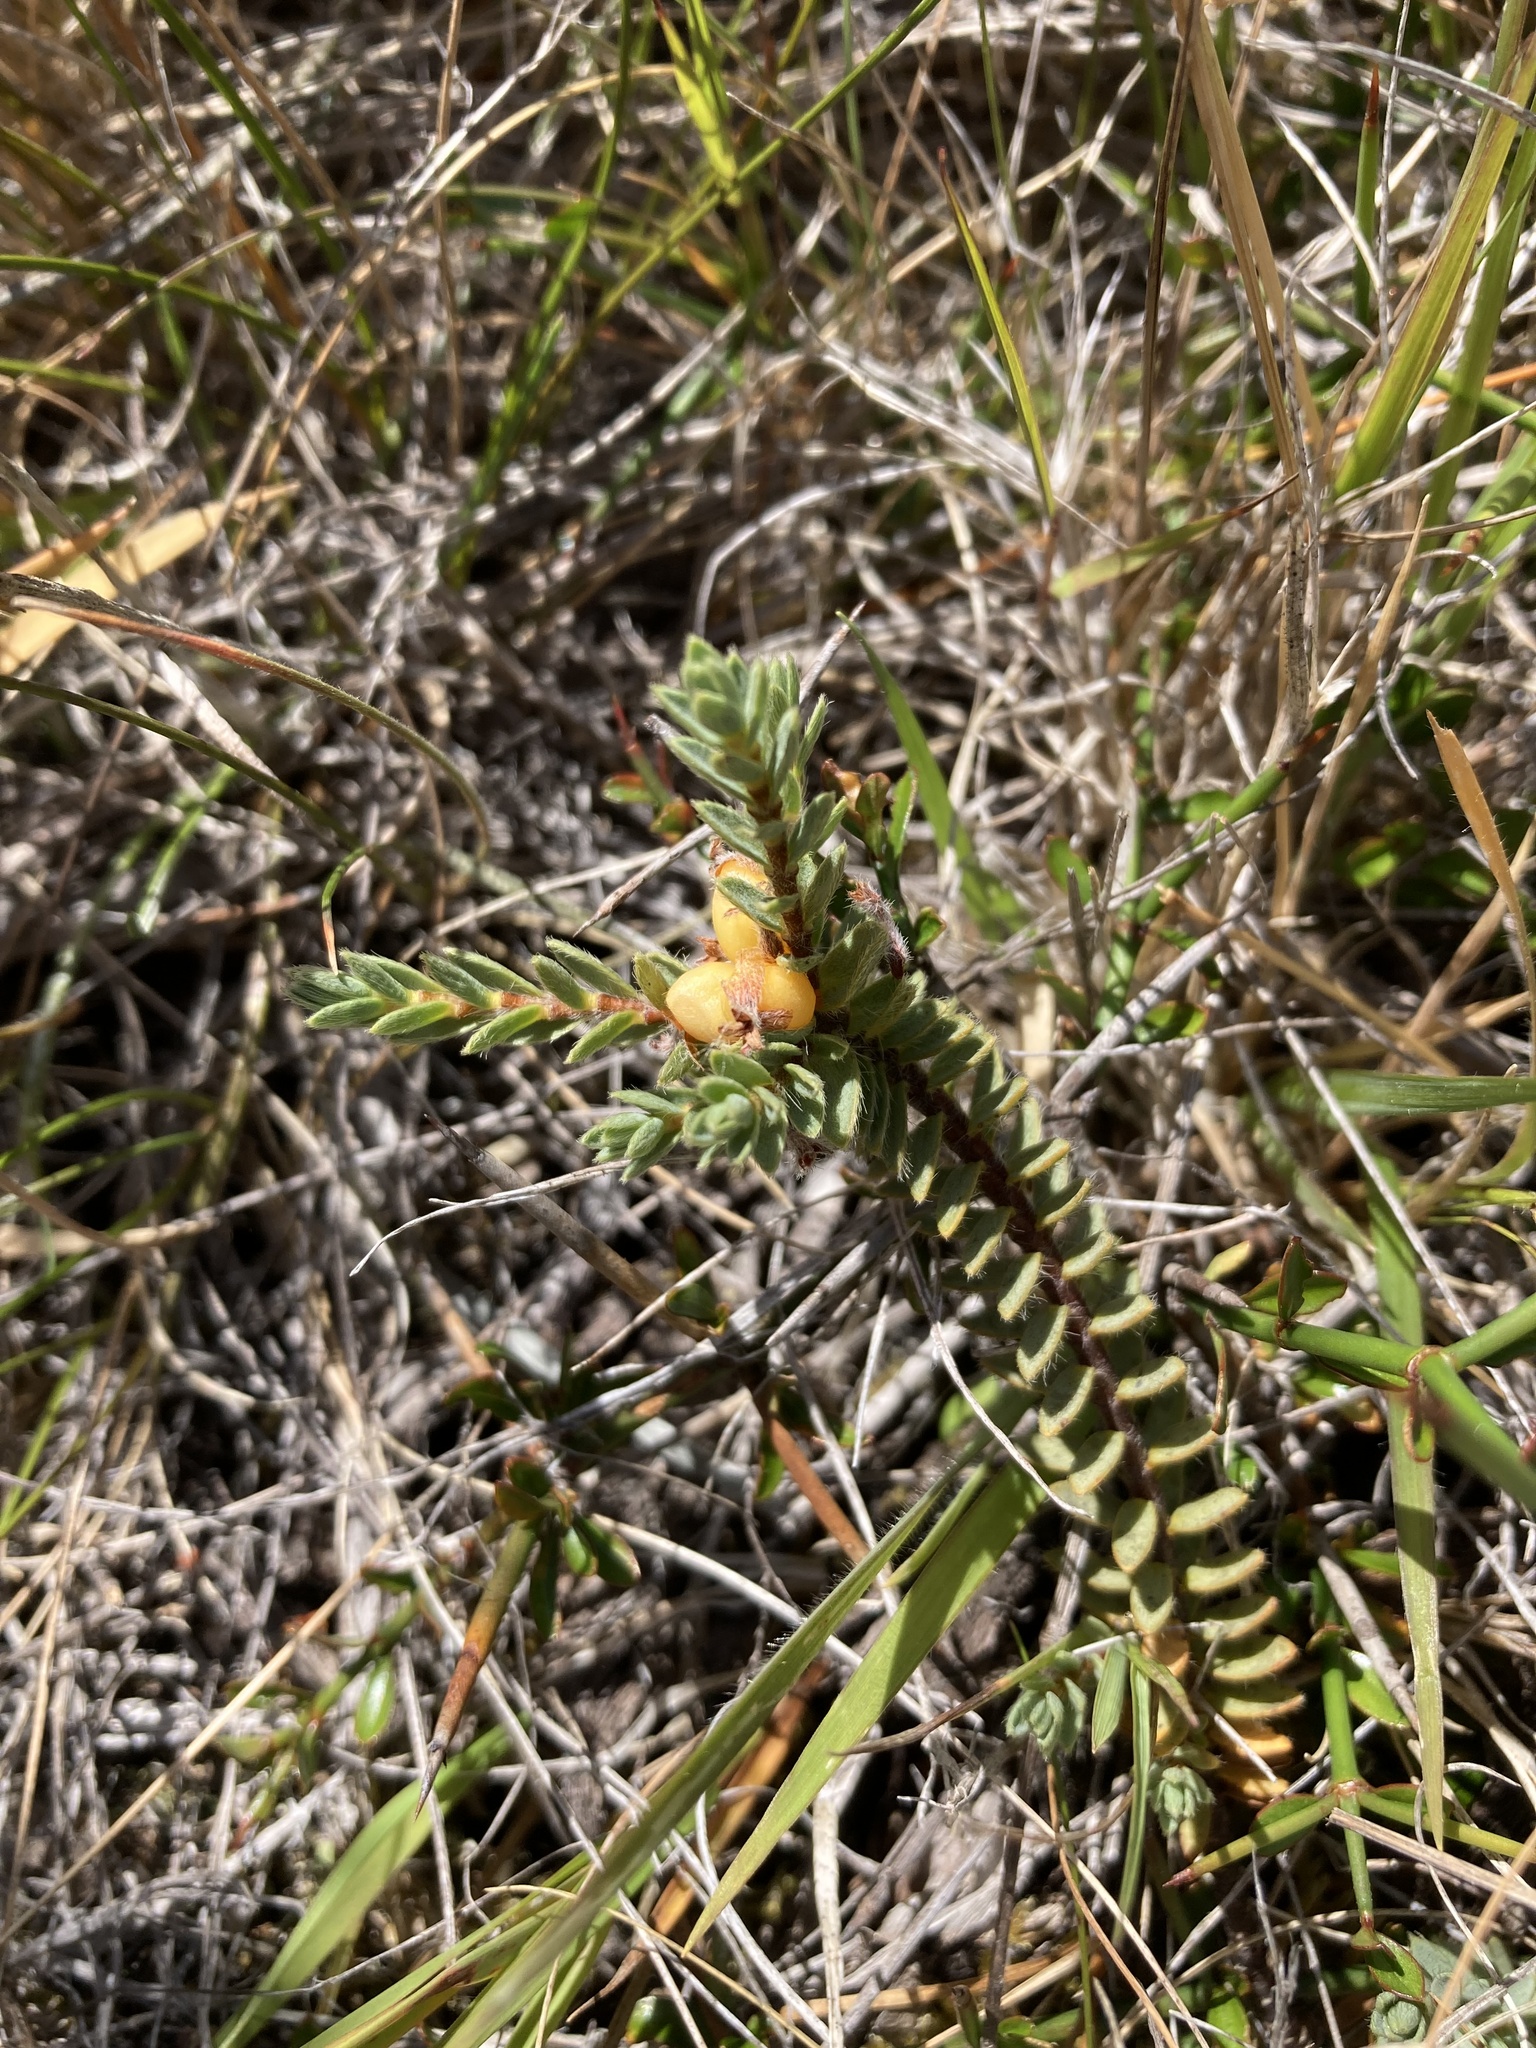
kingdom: Plantae
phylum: Tracheophyta
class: Magnoliopsida
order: Malvales
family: Thymelaeaceae
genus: Pimelea
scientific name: Pimelea oreophila
